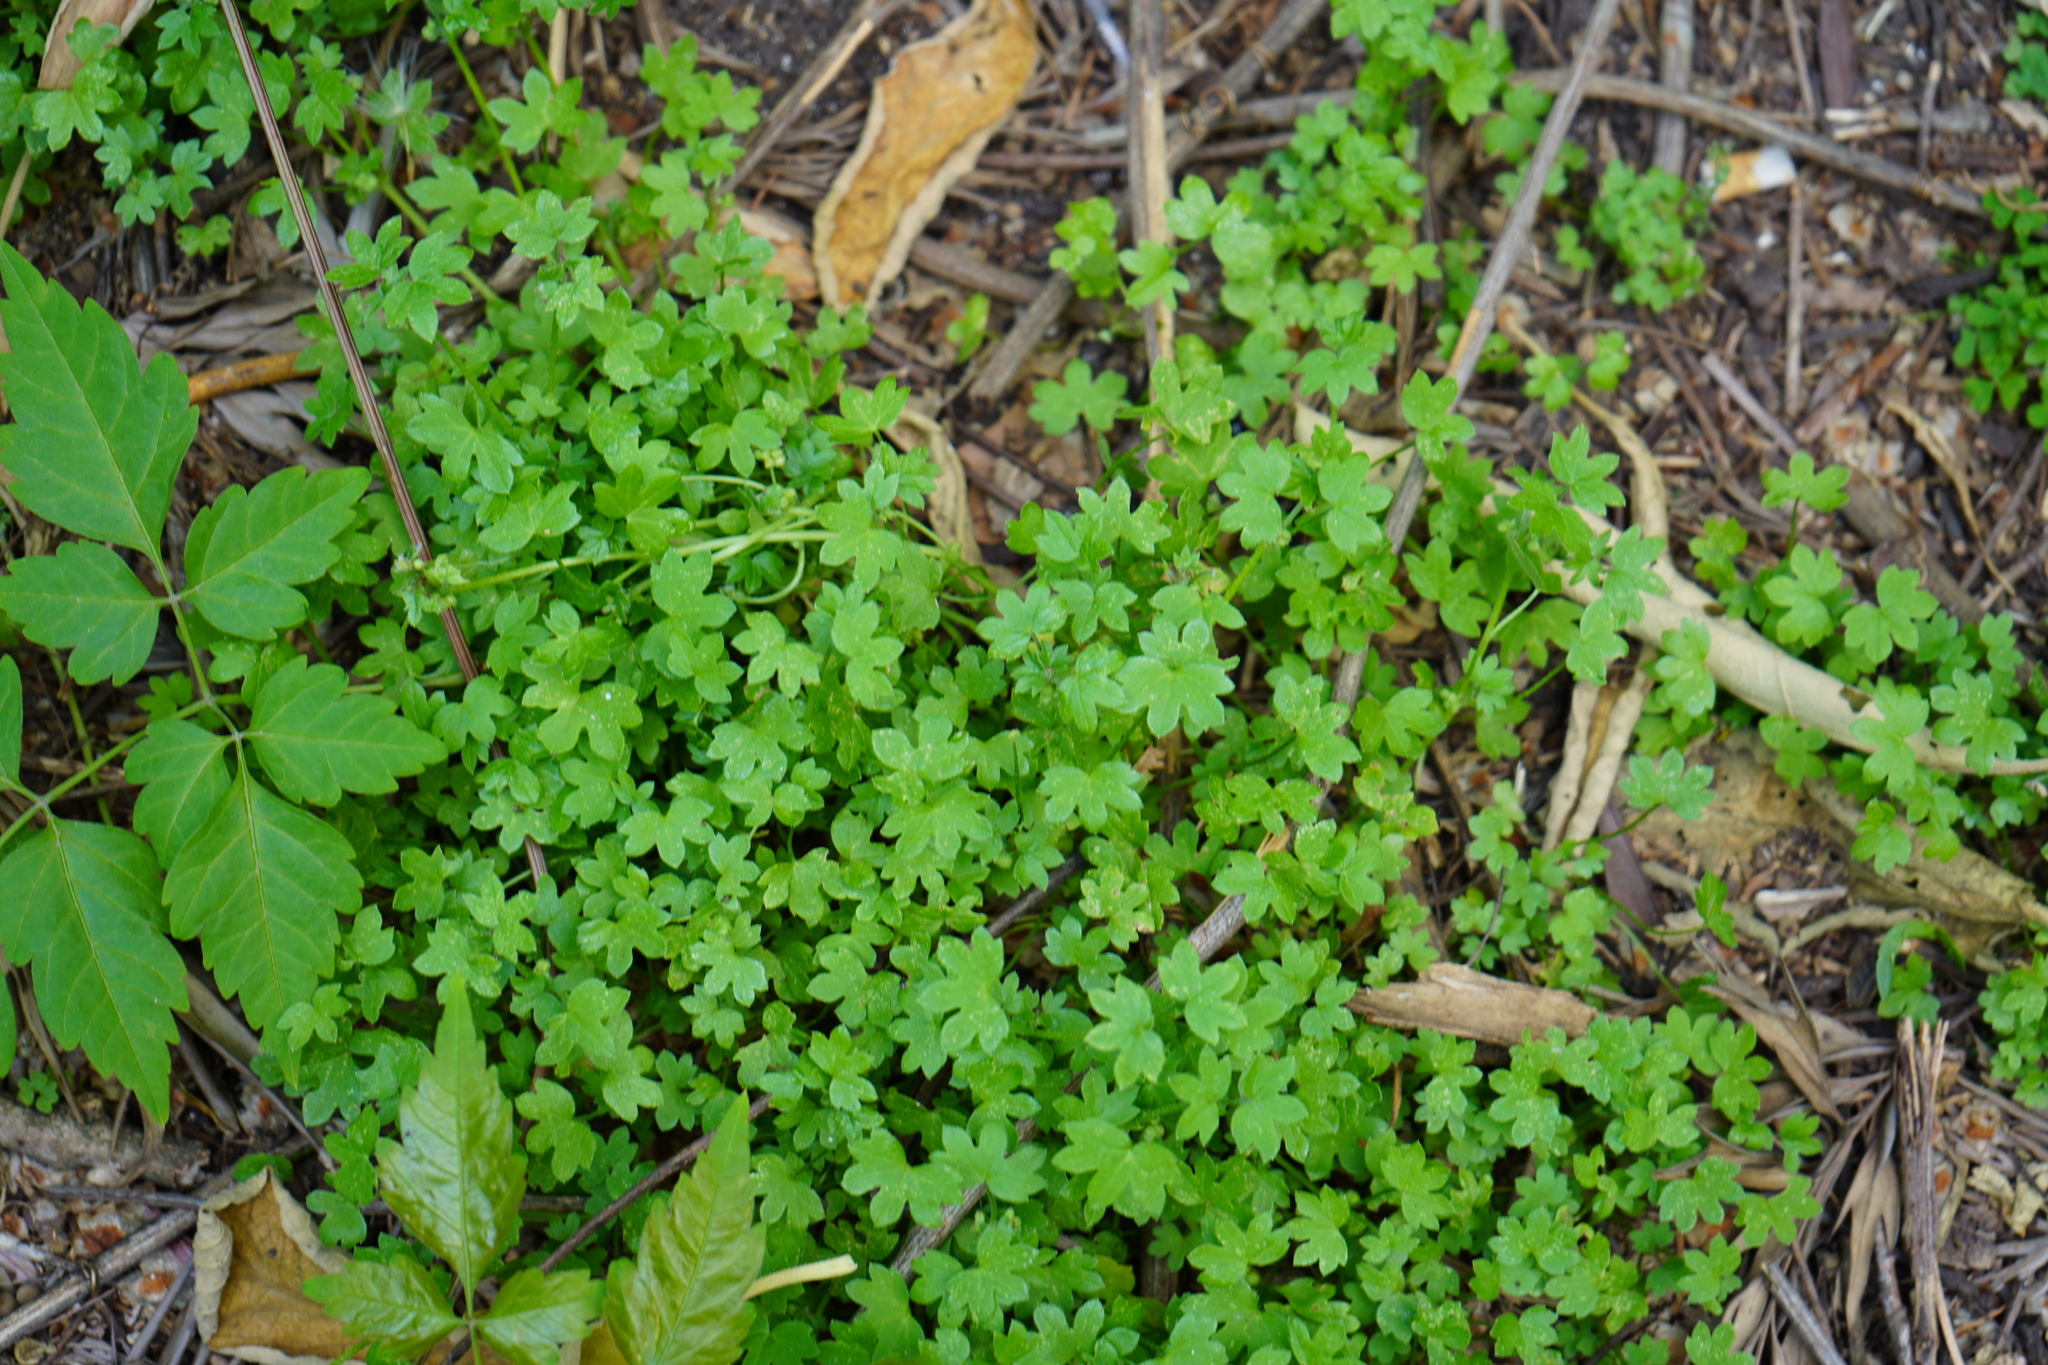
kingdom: Plantae
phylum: Tracheophyta
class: Magnoliopsida
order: Apiales
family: Apiaceae
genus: Bowlesia
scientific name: Bowlesia incana
